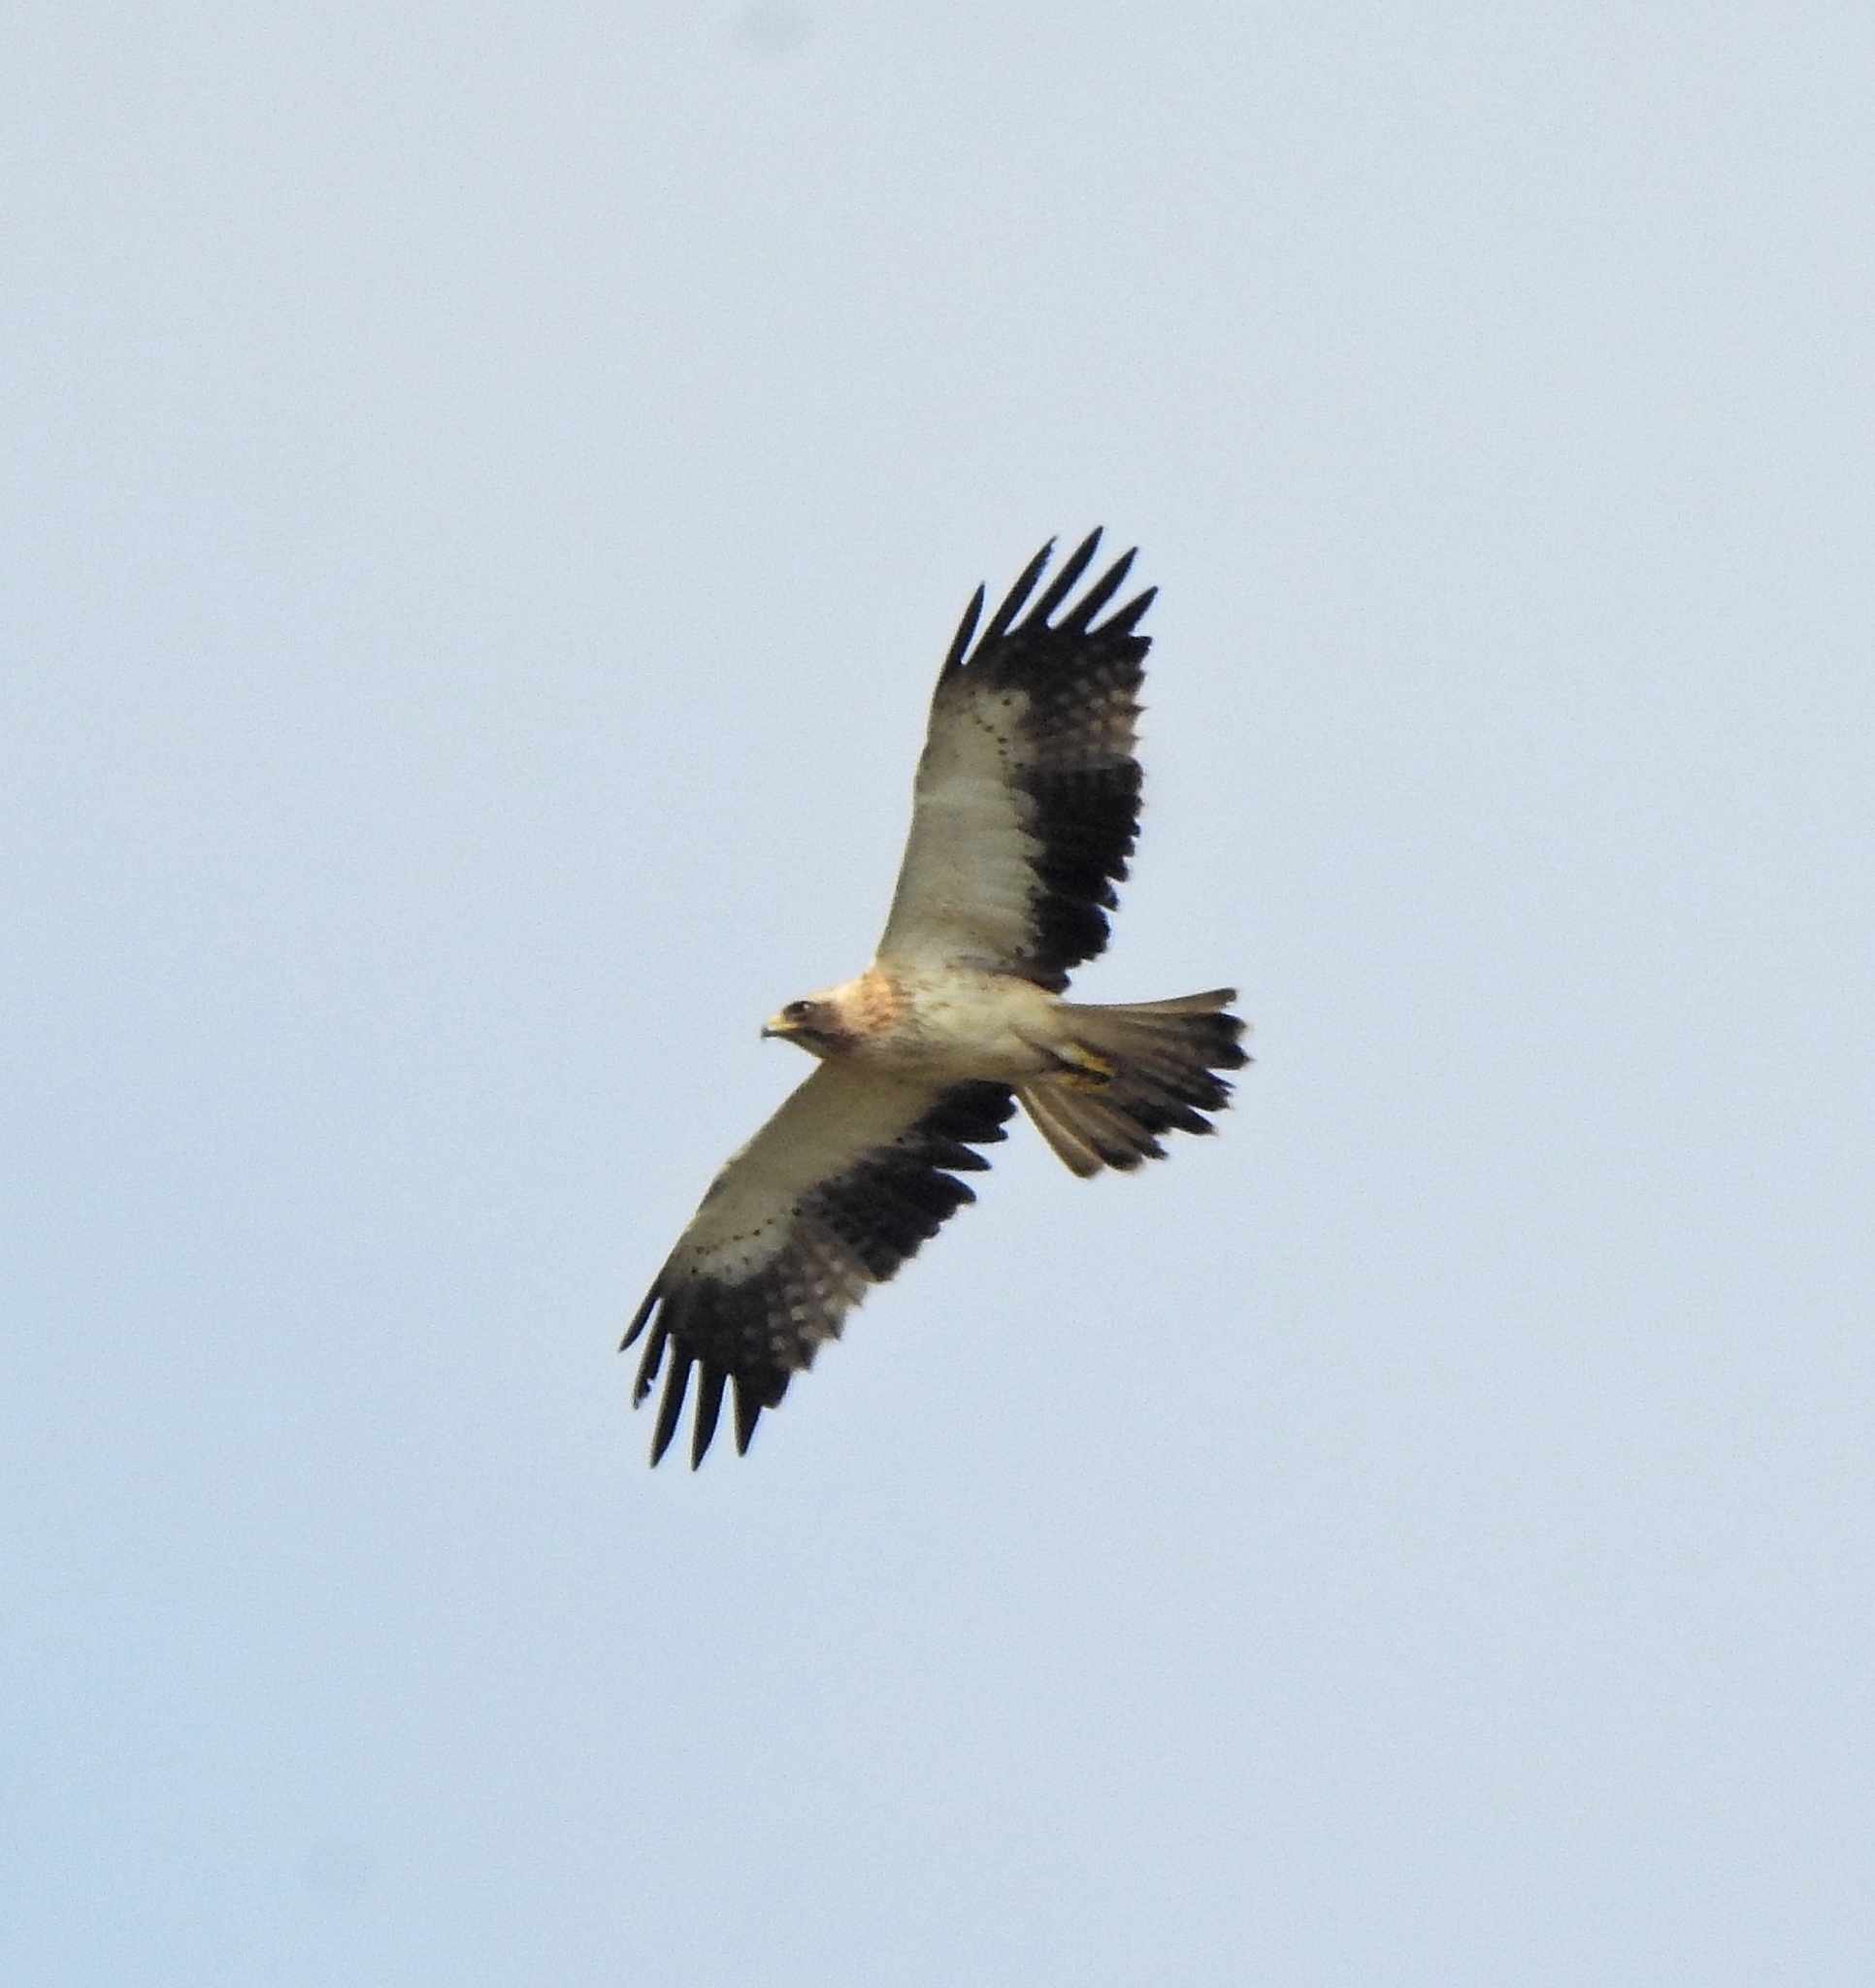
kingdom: Animalia
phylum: Chordata
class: Aves
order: Accipitriformes
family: Accipitridae
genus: Hieraaetus
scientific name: Hieraaetus pennatus
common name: Booted eagle
